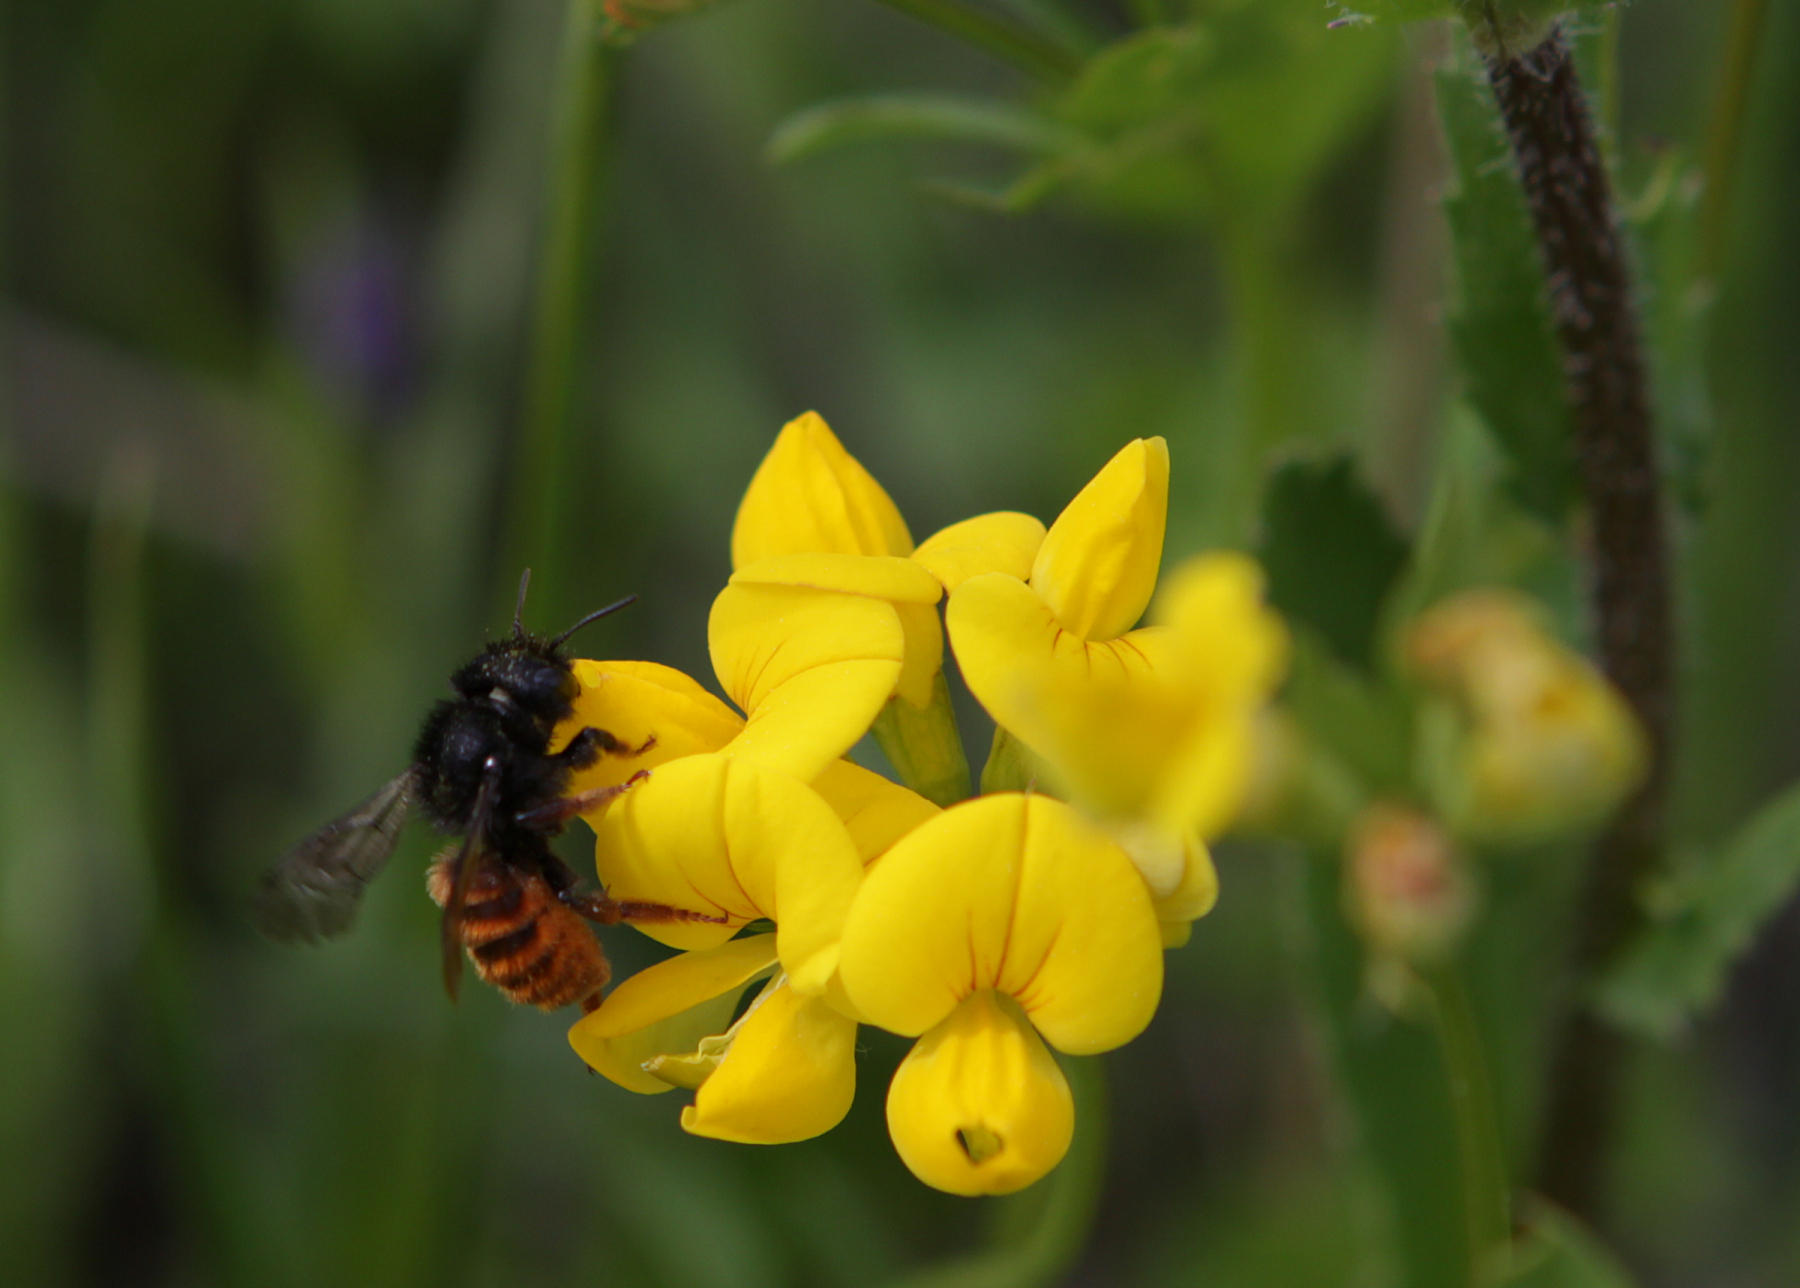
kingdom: Animalia
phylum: Arthropoda
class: Insecta
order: Hymenoptera
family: Megachilidae
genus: Osmia
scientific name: Osmia bicolor
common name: Red-tailed mason bee
